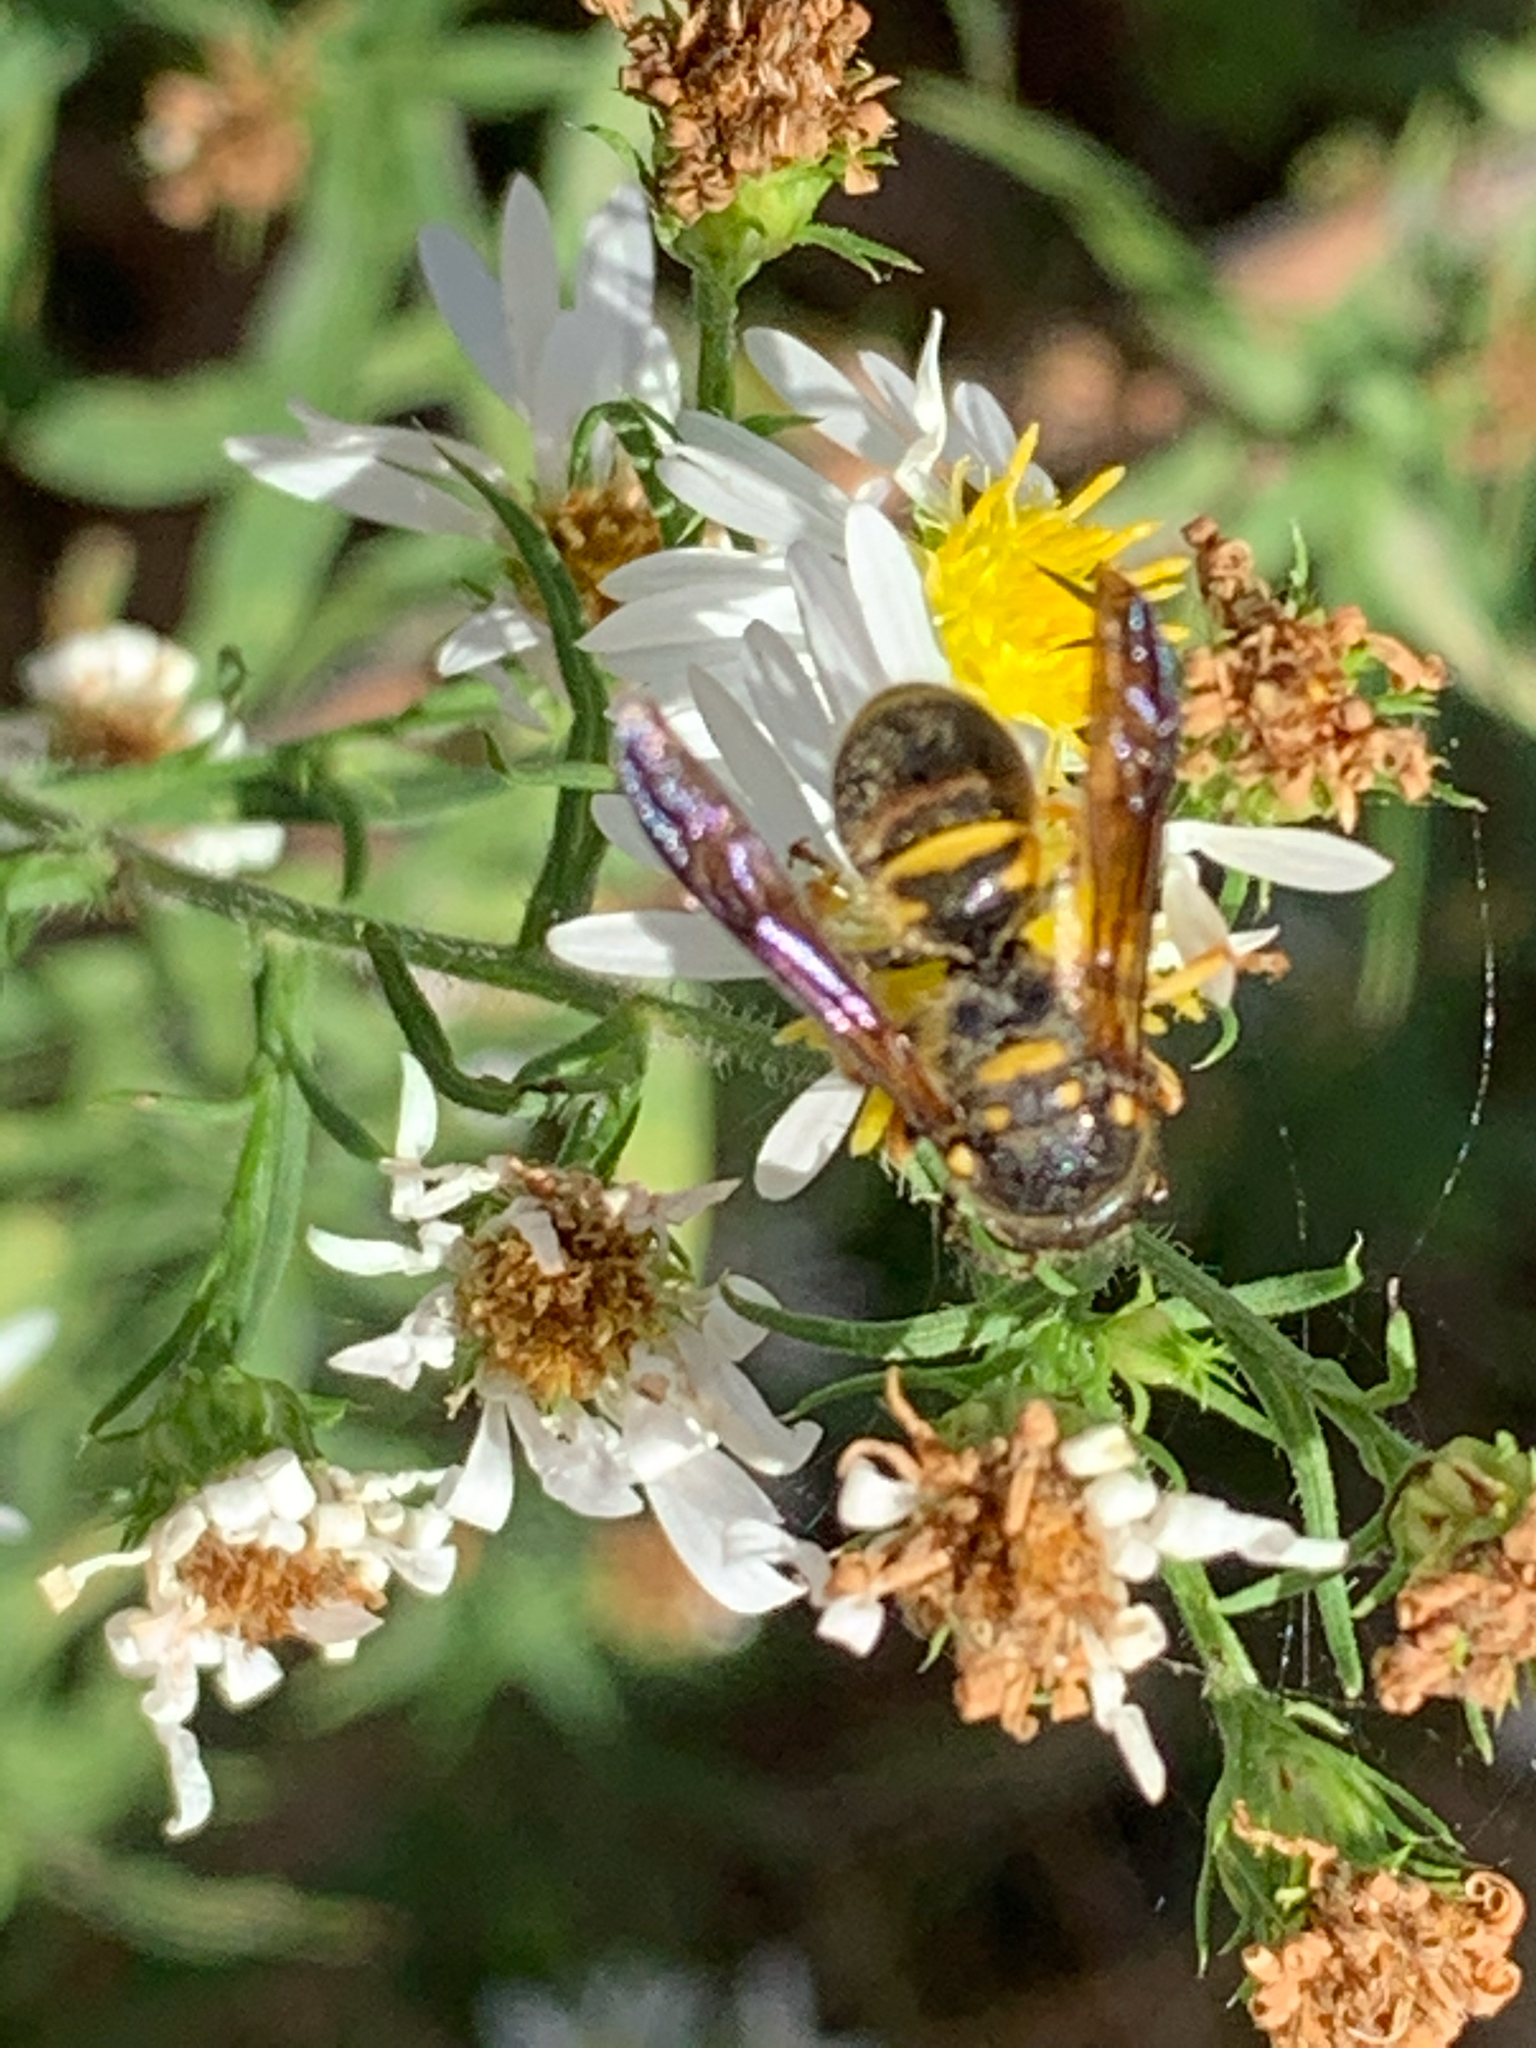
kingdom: Animalia
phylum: Arthropoda
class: Insecta
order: Hymenoptera
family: Vespidae
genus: Ancistrocerus
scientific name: Ancistrocerus campestris
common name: Smiling mason wasp
